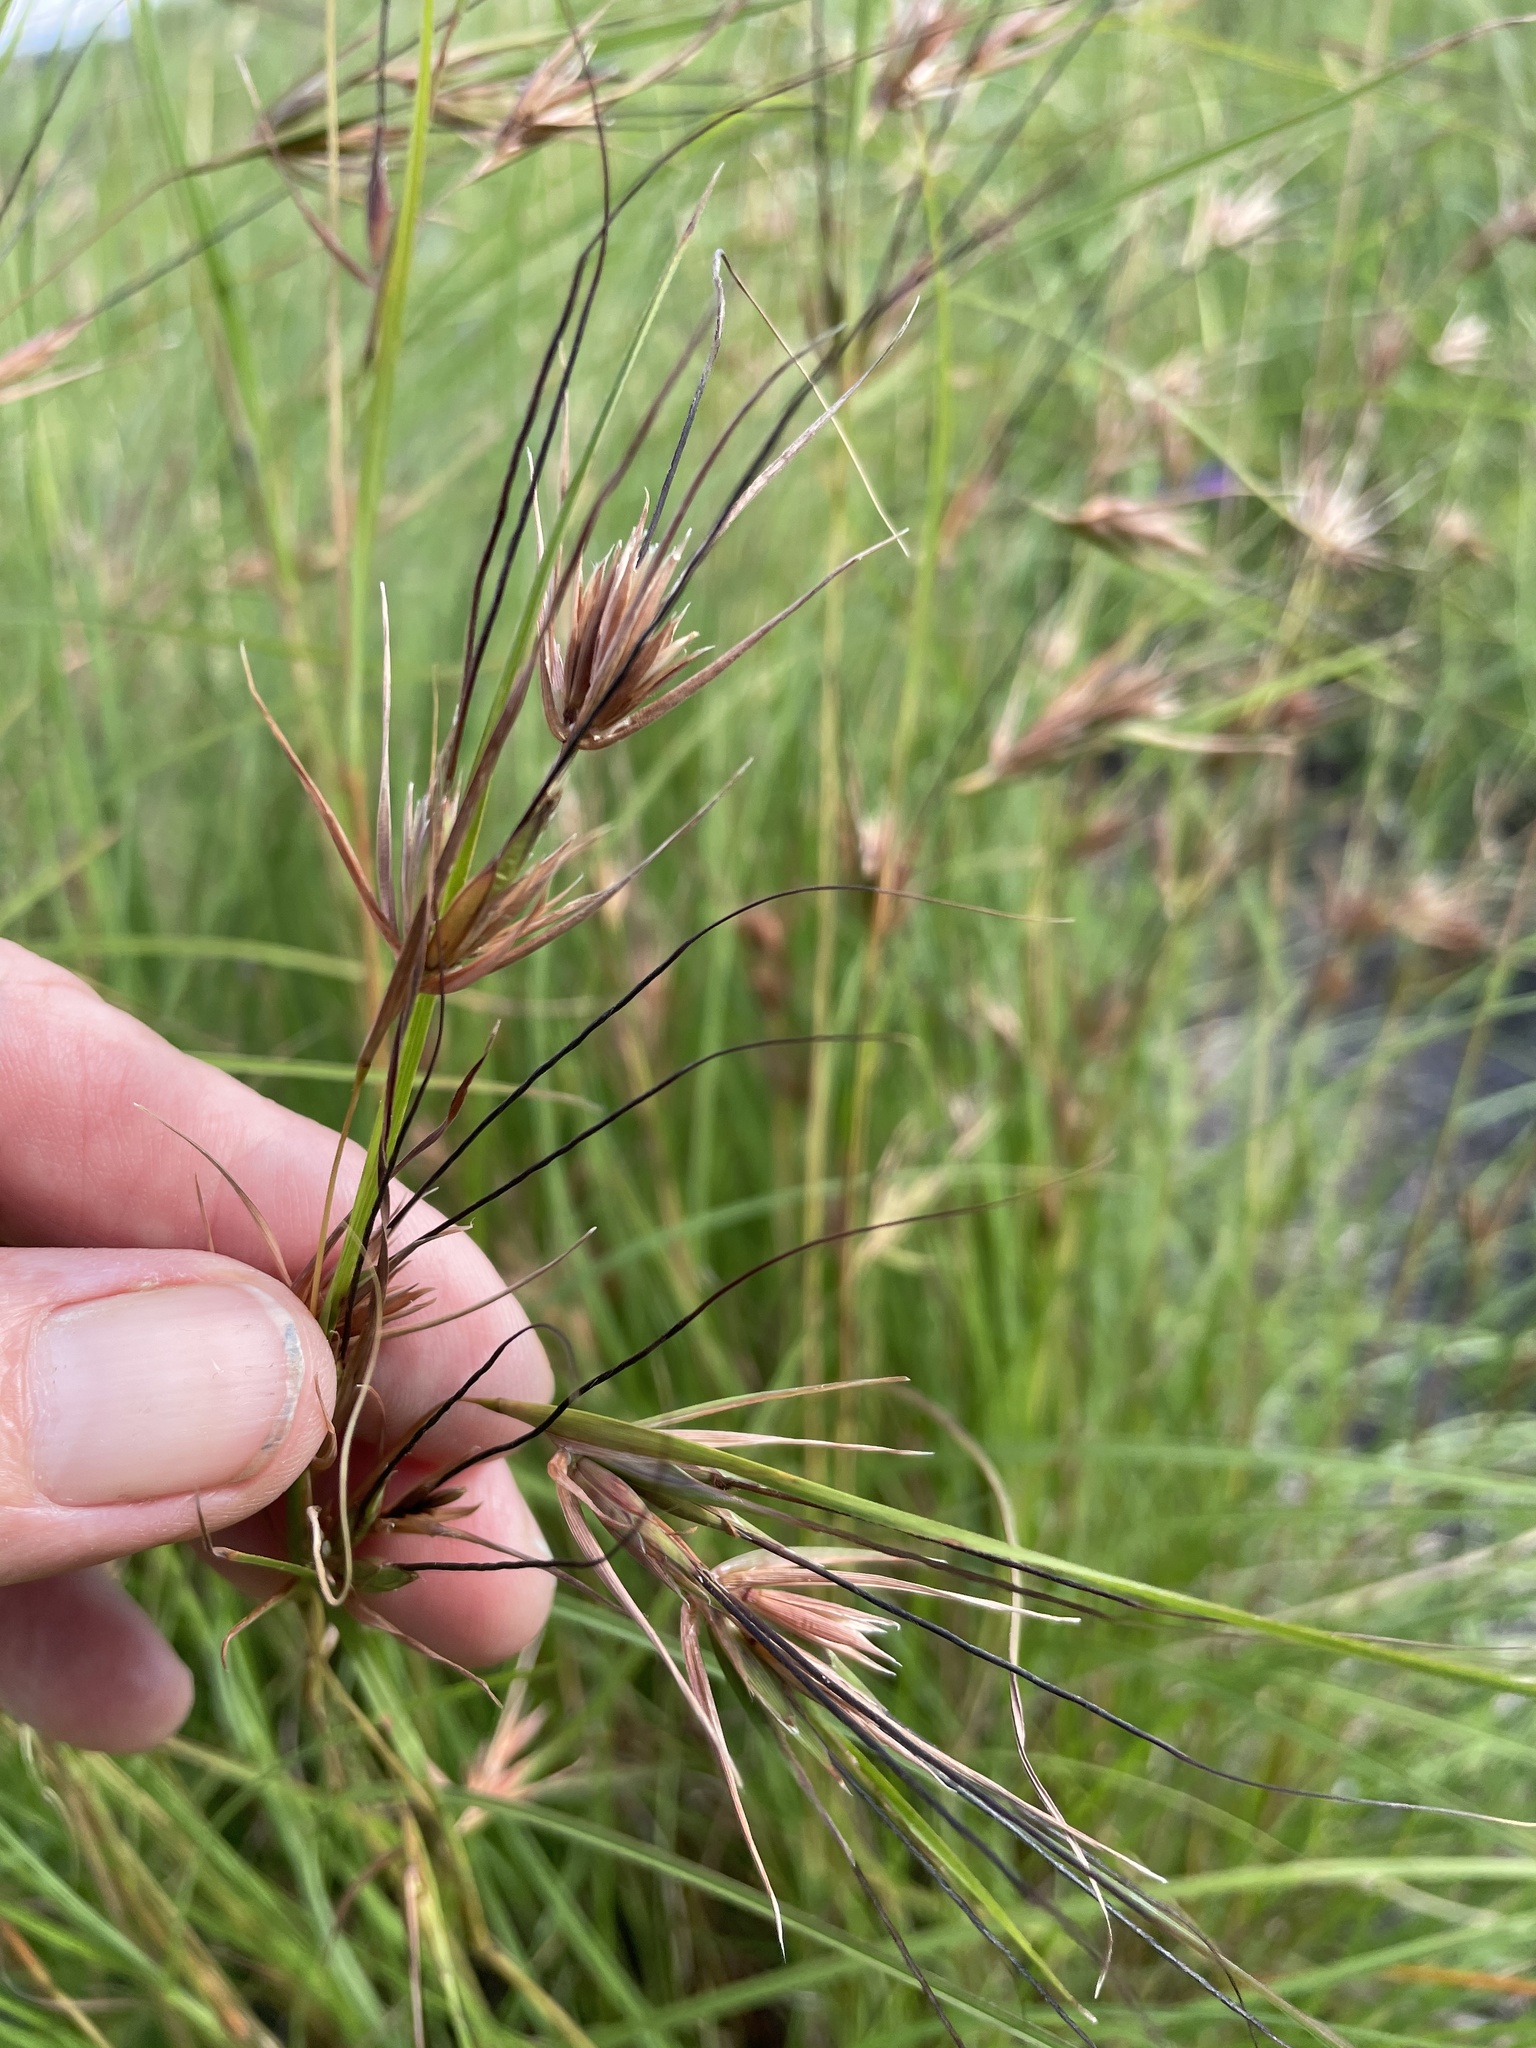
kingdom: Plantae
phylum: Tracheophyta
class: Liliopsida
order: Poales
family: Poaceae
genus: Themeda
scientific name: Themeda triandra
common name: Kangaroo grass
